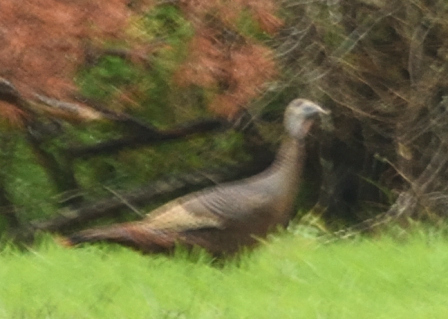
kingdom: Animalia
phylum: Chordata
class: Aves
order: Galliformes
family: Phasianidae
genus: Meleagris
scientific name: Meleagris gallopavo
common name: Wild turkey
